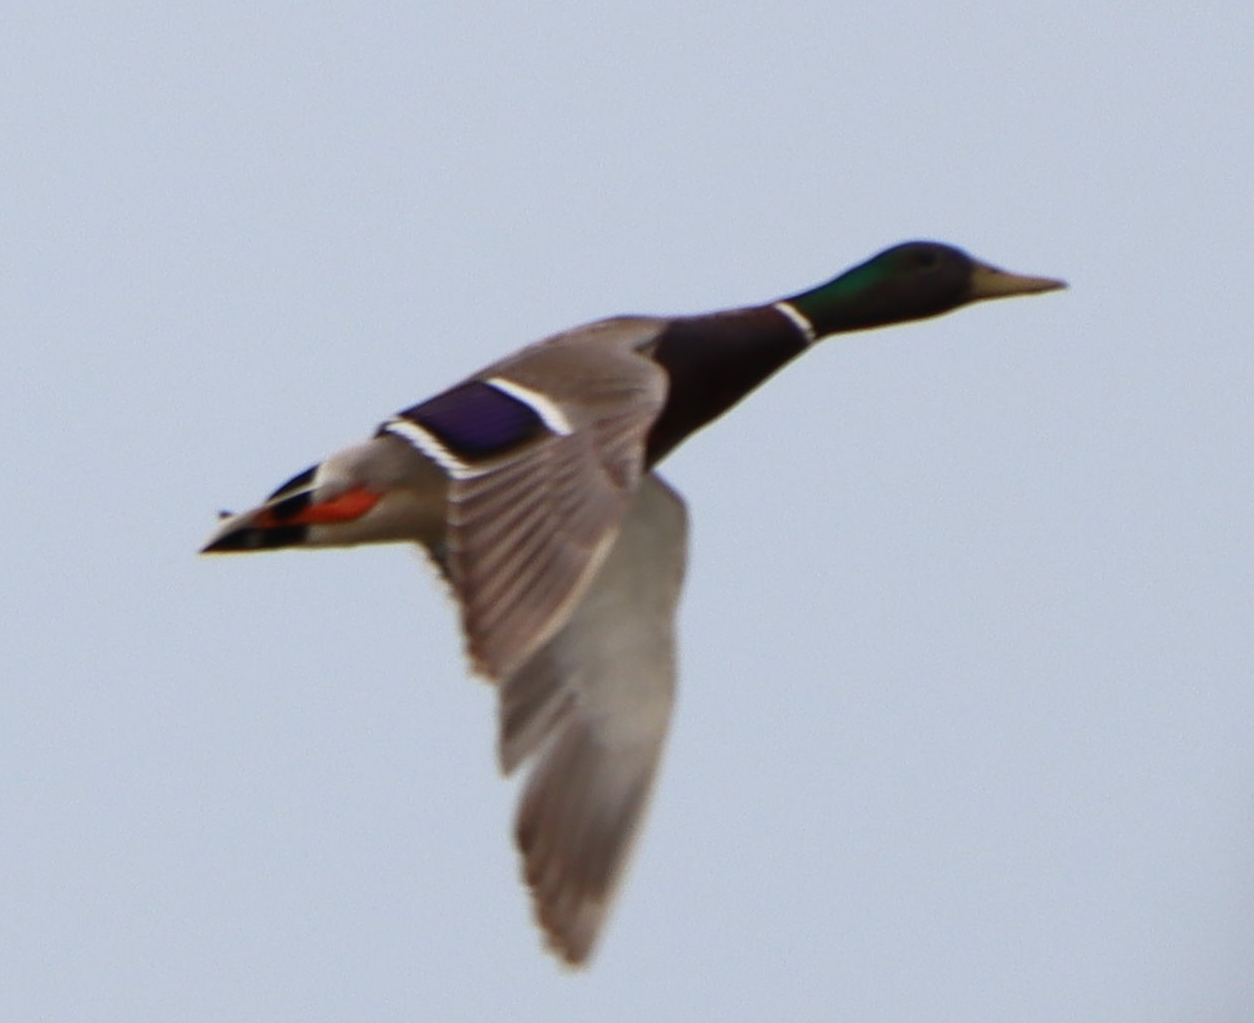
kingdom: Animalia
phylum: Chordata
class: Aves
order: Anseriformes
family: Anatidae
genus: Anas
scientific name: Anas platyrhynchos
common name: Mallard
